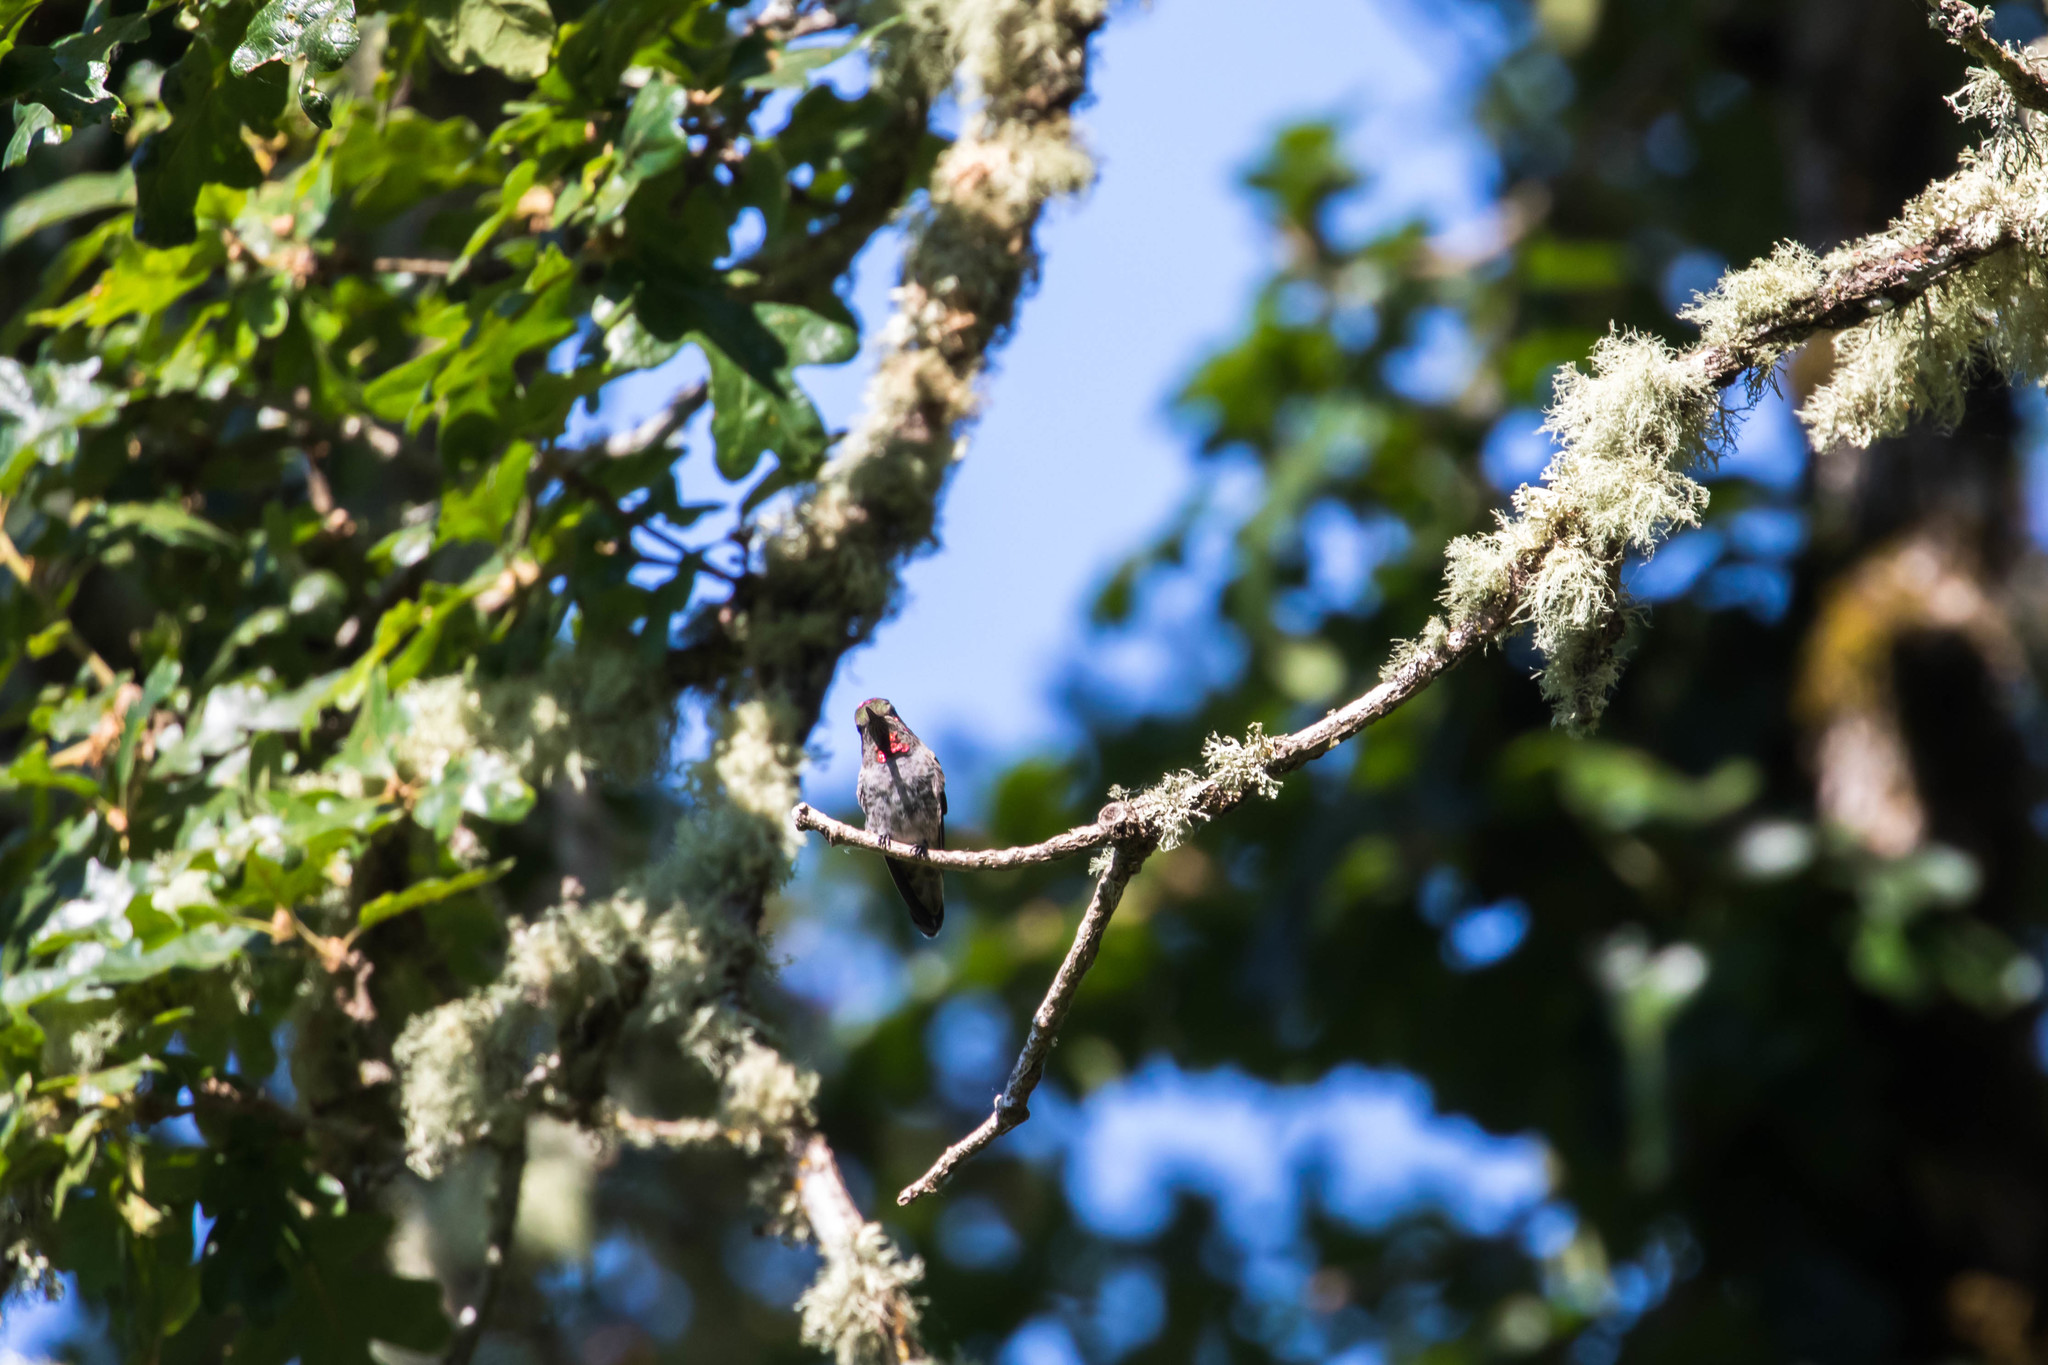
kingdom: Animalia
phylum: Chordata
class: Aves
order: Apodiformes
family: Trochilidae
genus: Calypte
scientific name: Calypte anna
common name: Anna's hummingbird
